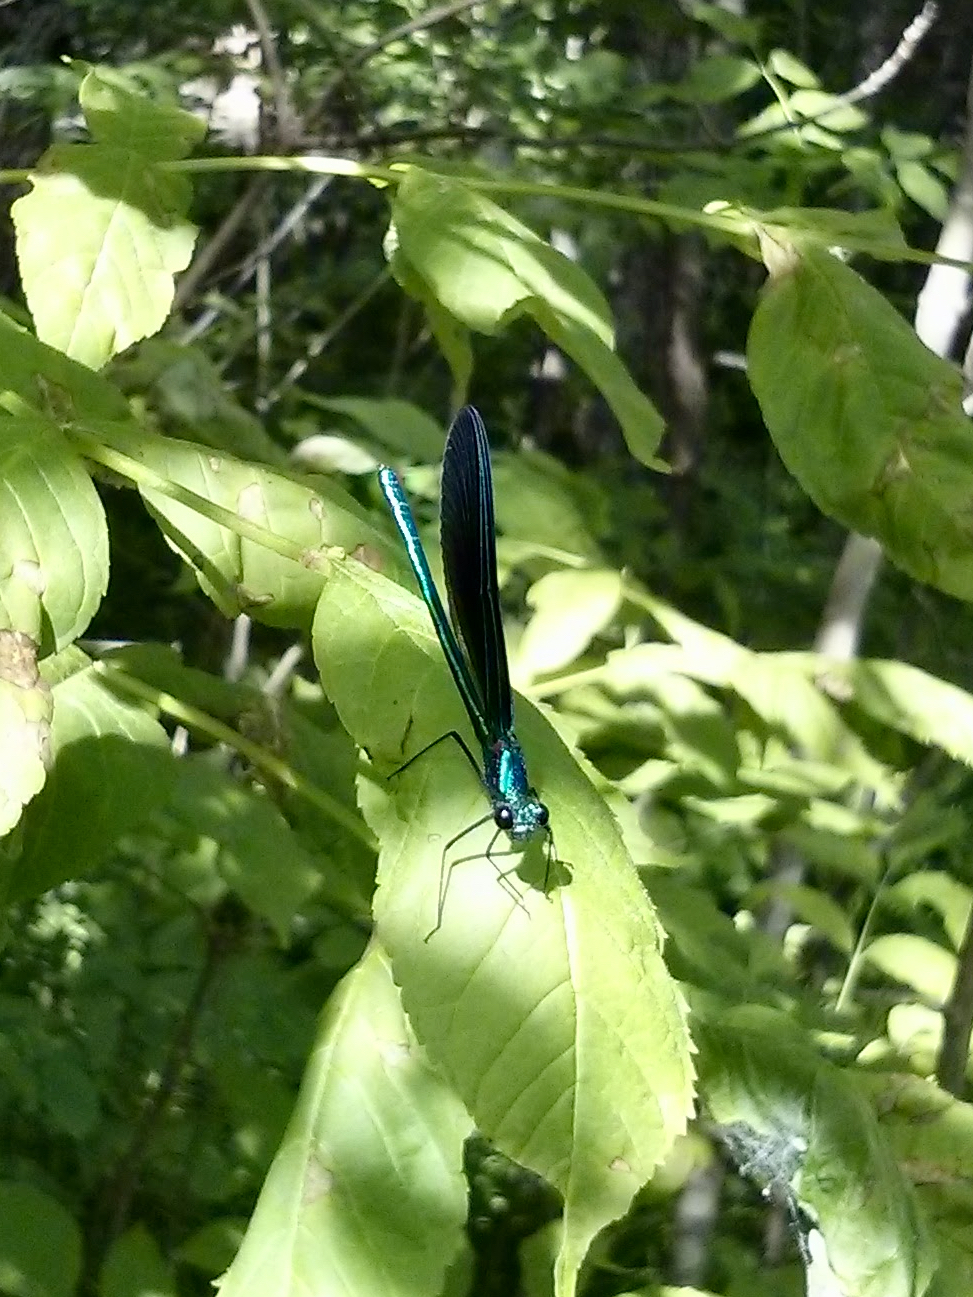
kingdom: Animalia
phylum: Arthropoda
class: Insecta
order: Odonata
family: Calopterygidae
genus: Calopteryx
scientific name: Calopteryx maculata
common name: Ebony jewelwing
